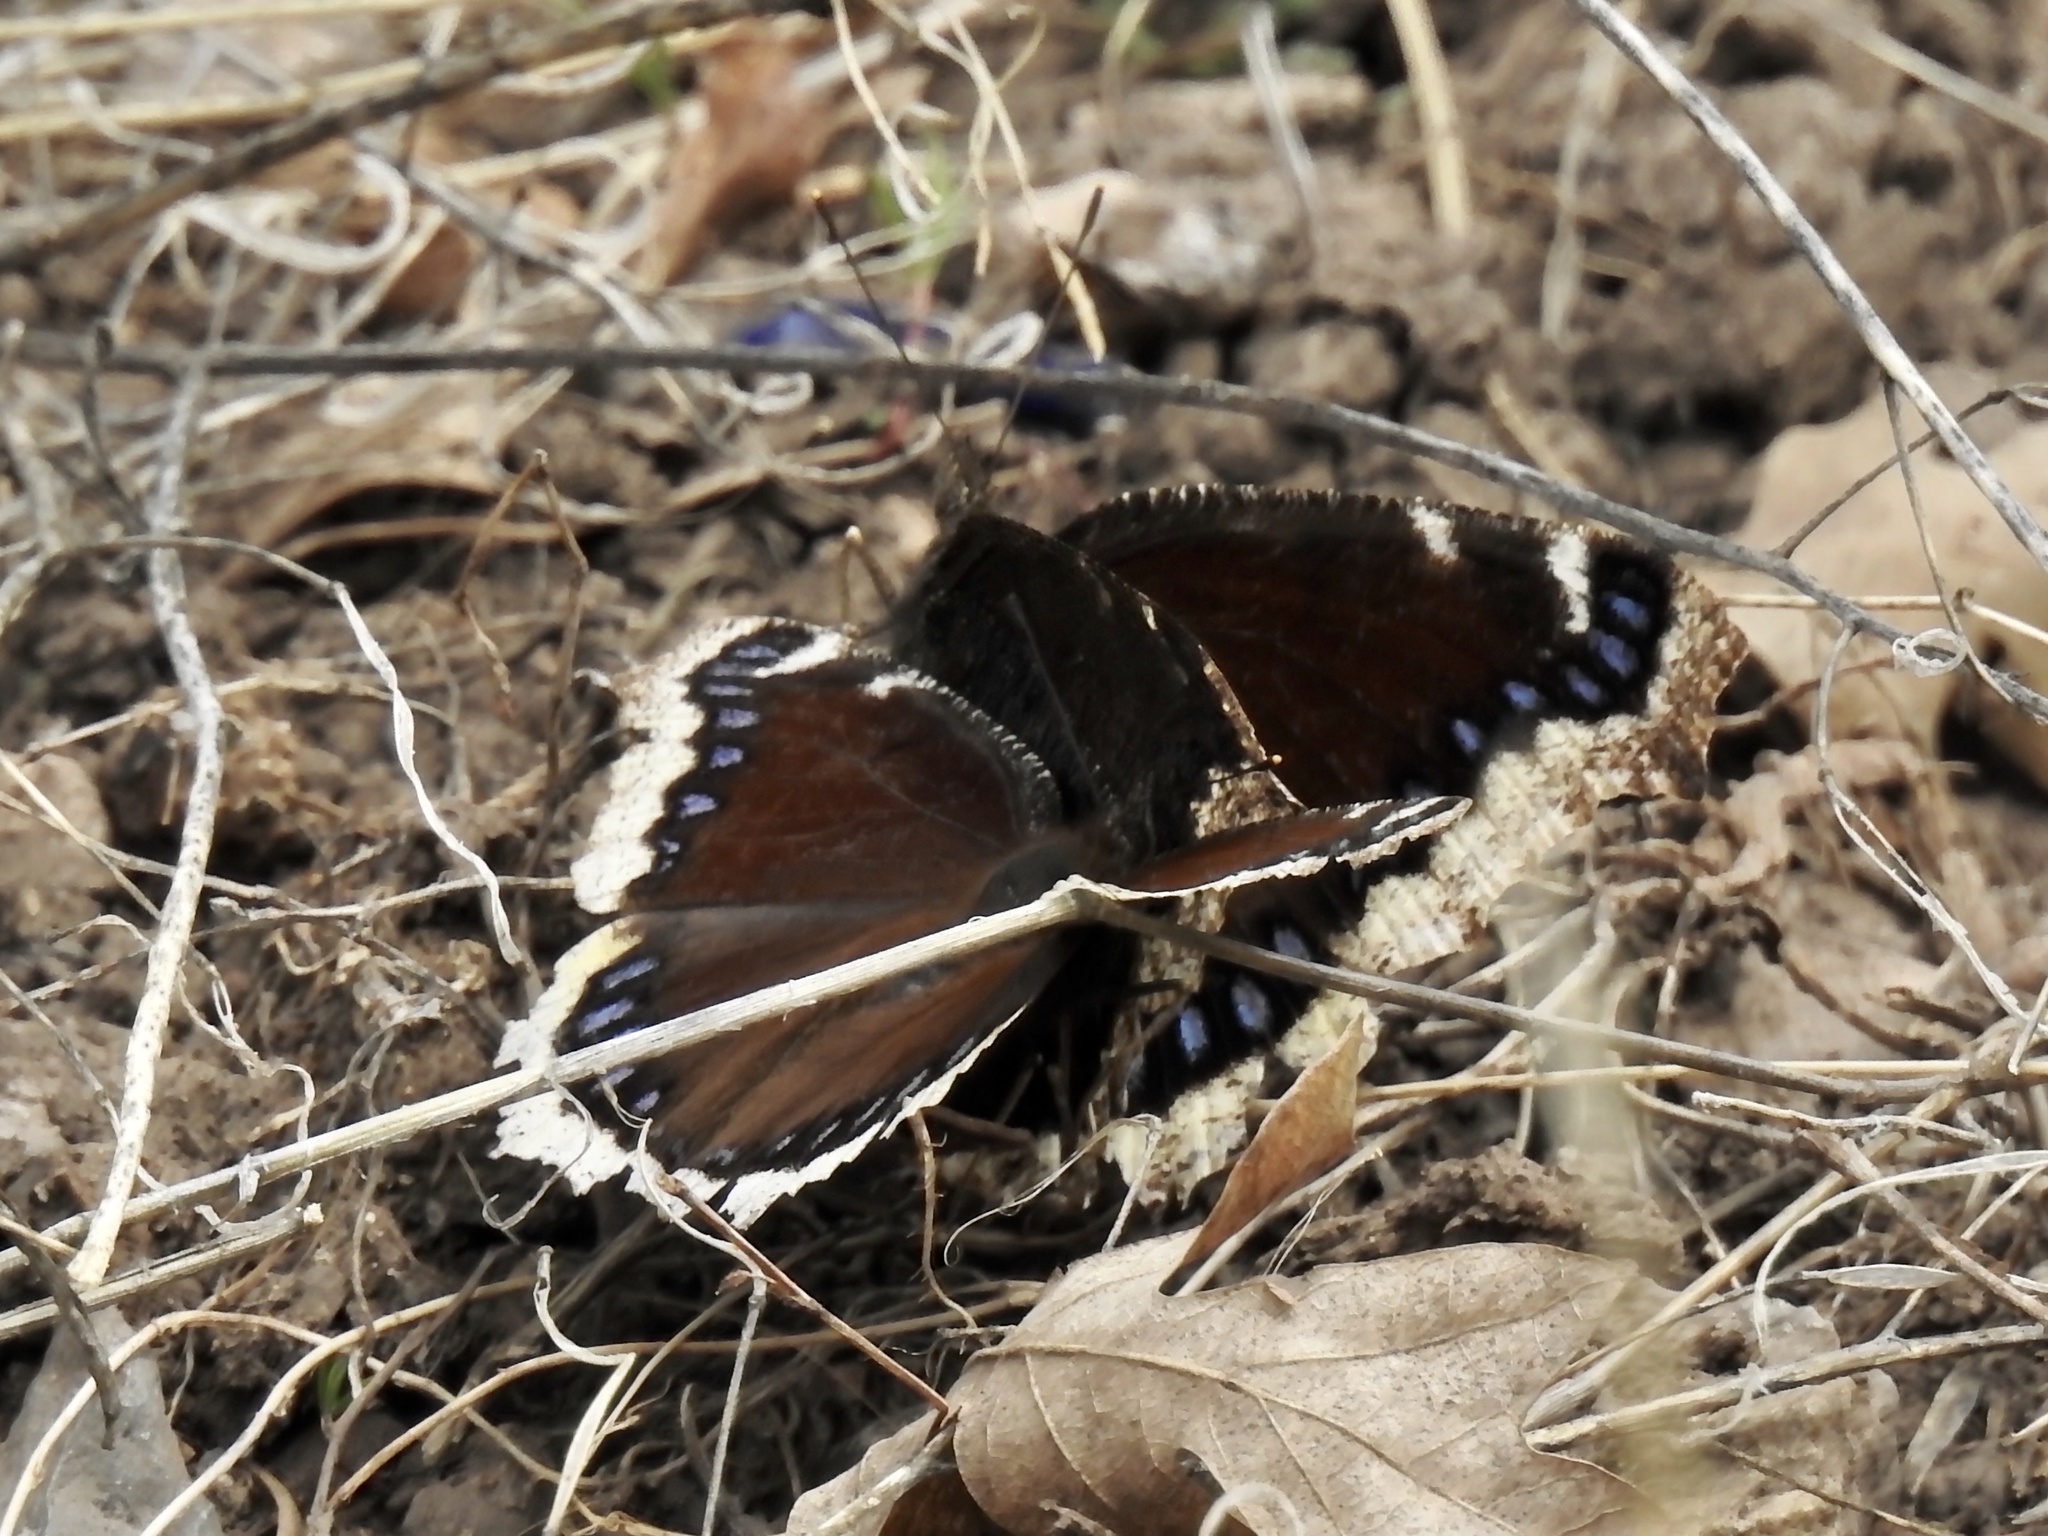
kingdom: Animalia
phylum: Arthropoda
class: Insecta
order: Lepidoptera
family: Nymphalidae
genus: Nymphalis
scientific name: Nymphalis antiopa
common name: Camberwell beauty
